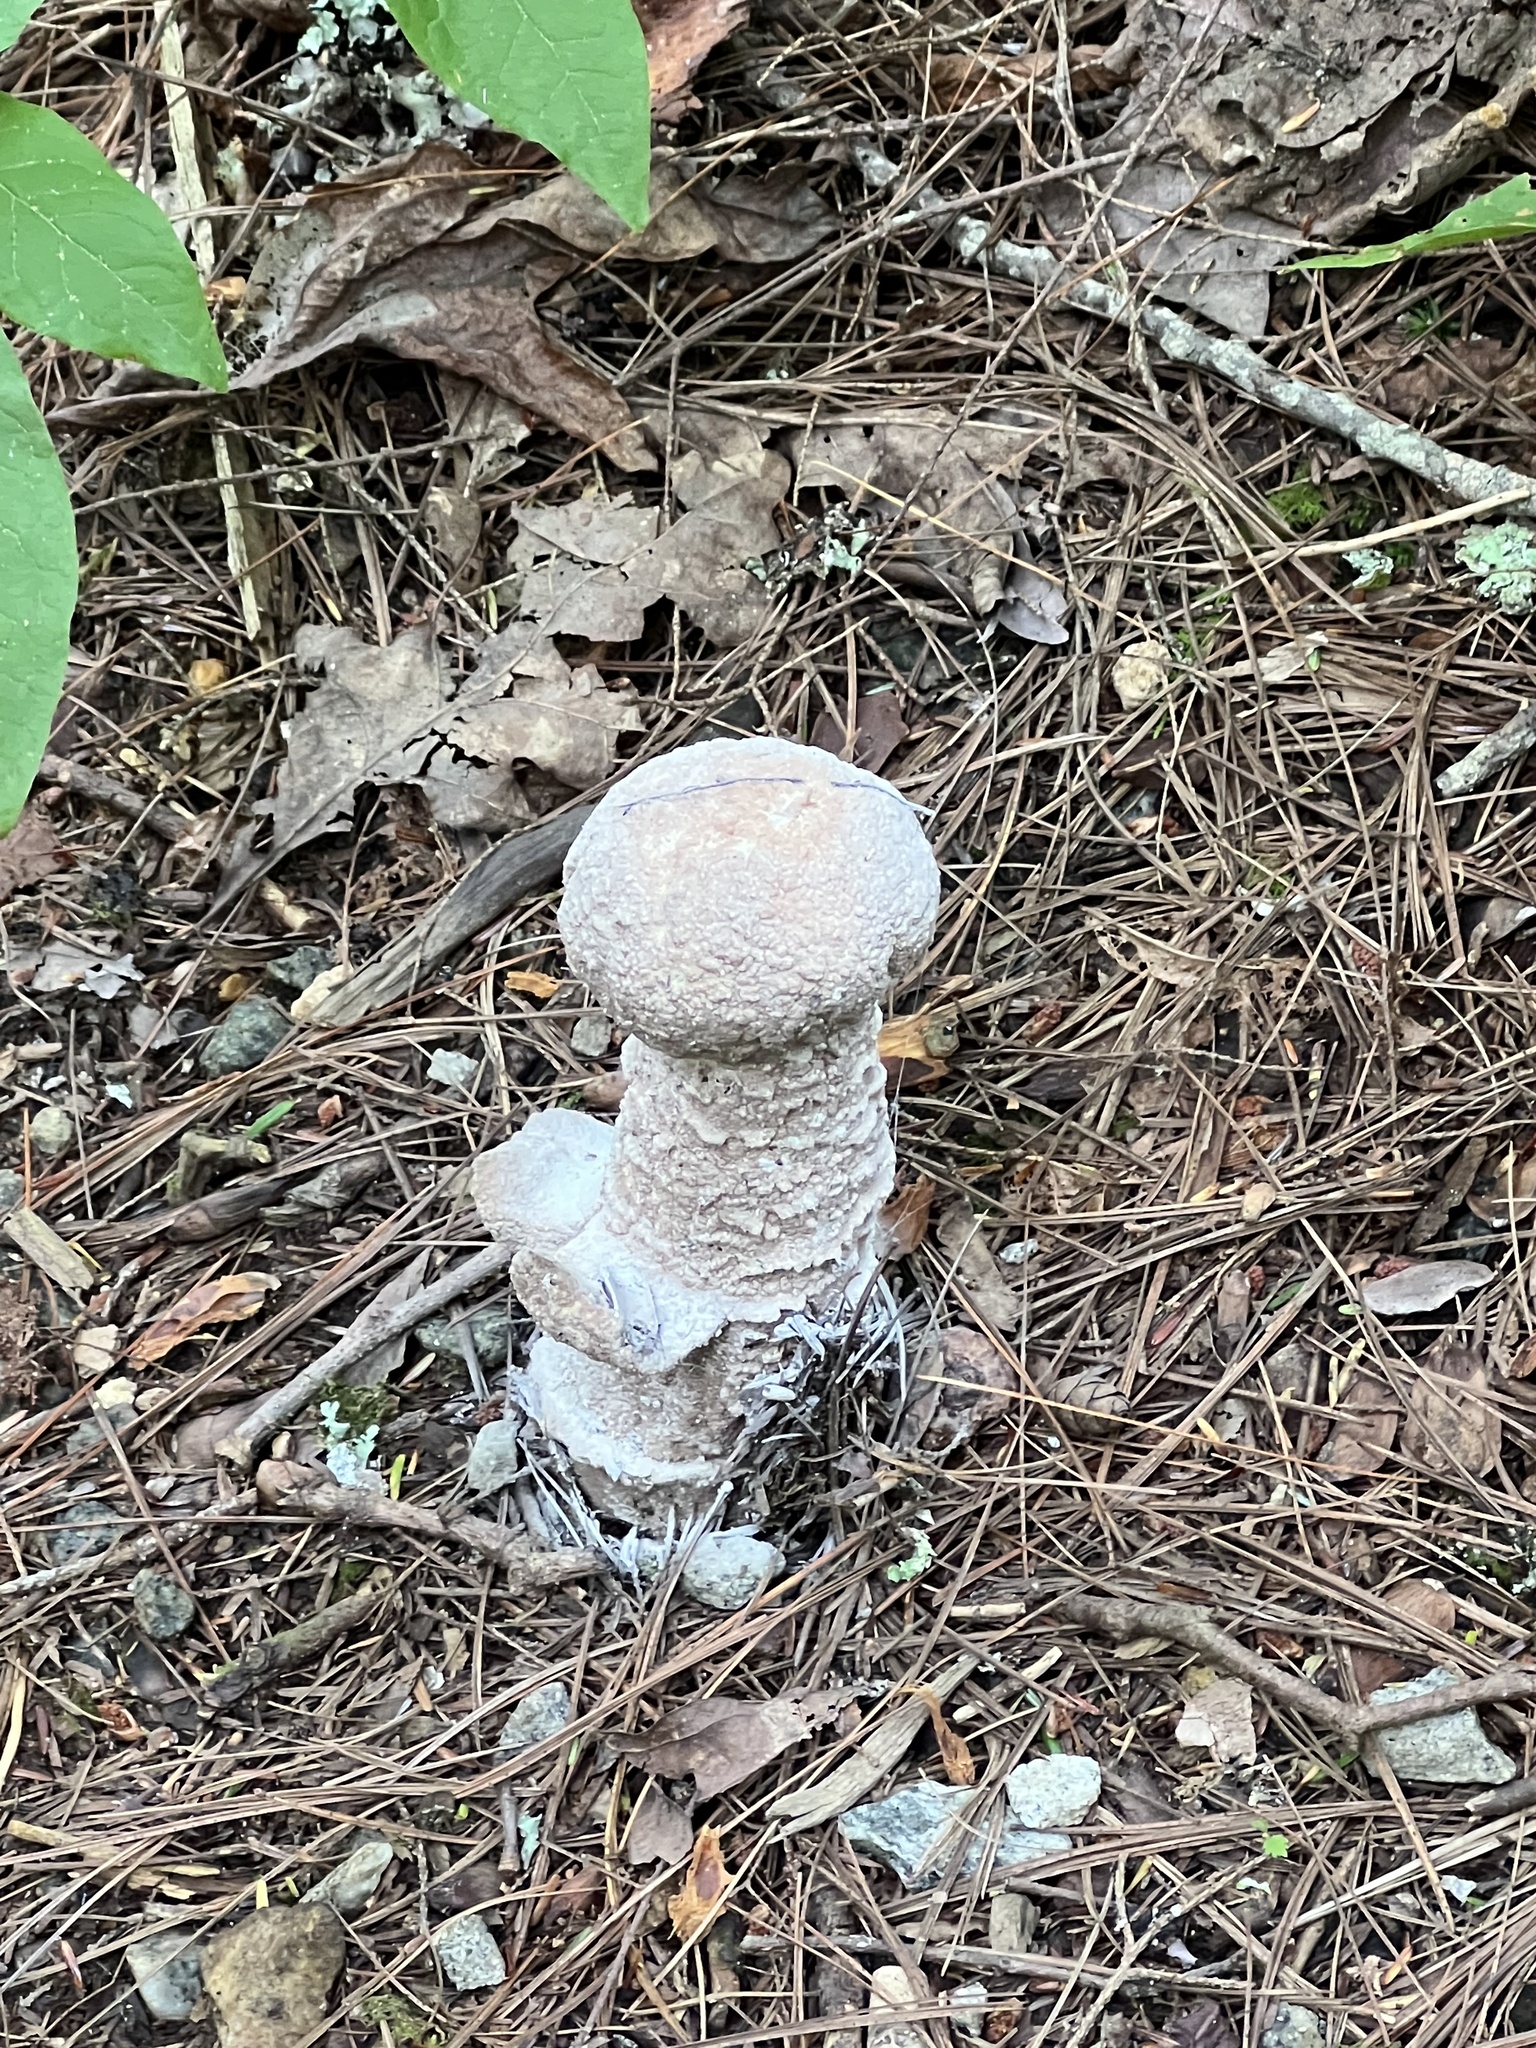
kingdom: Fungi
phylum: Ascomycota
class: Sordariomycetes
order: Hypocreales
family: Hypocreaceae
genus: Hypomyces
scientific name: Hypomyces hyalinus
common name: Amanita mold
